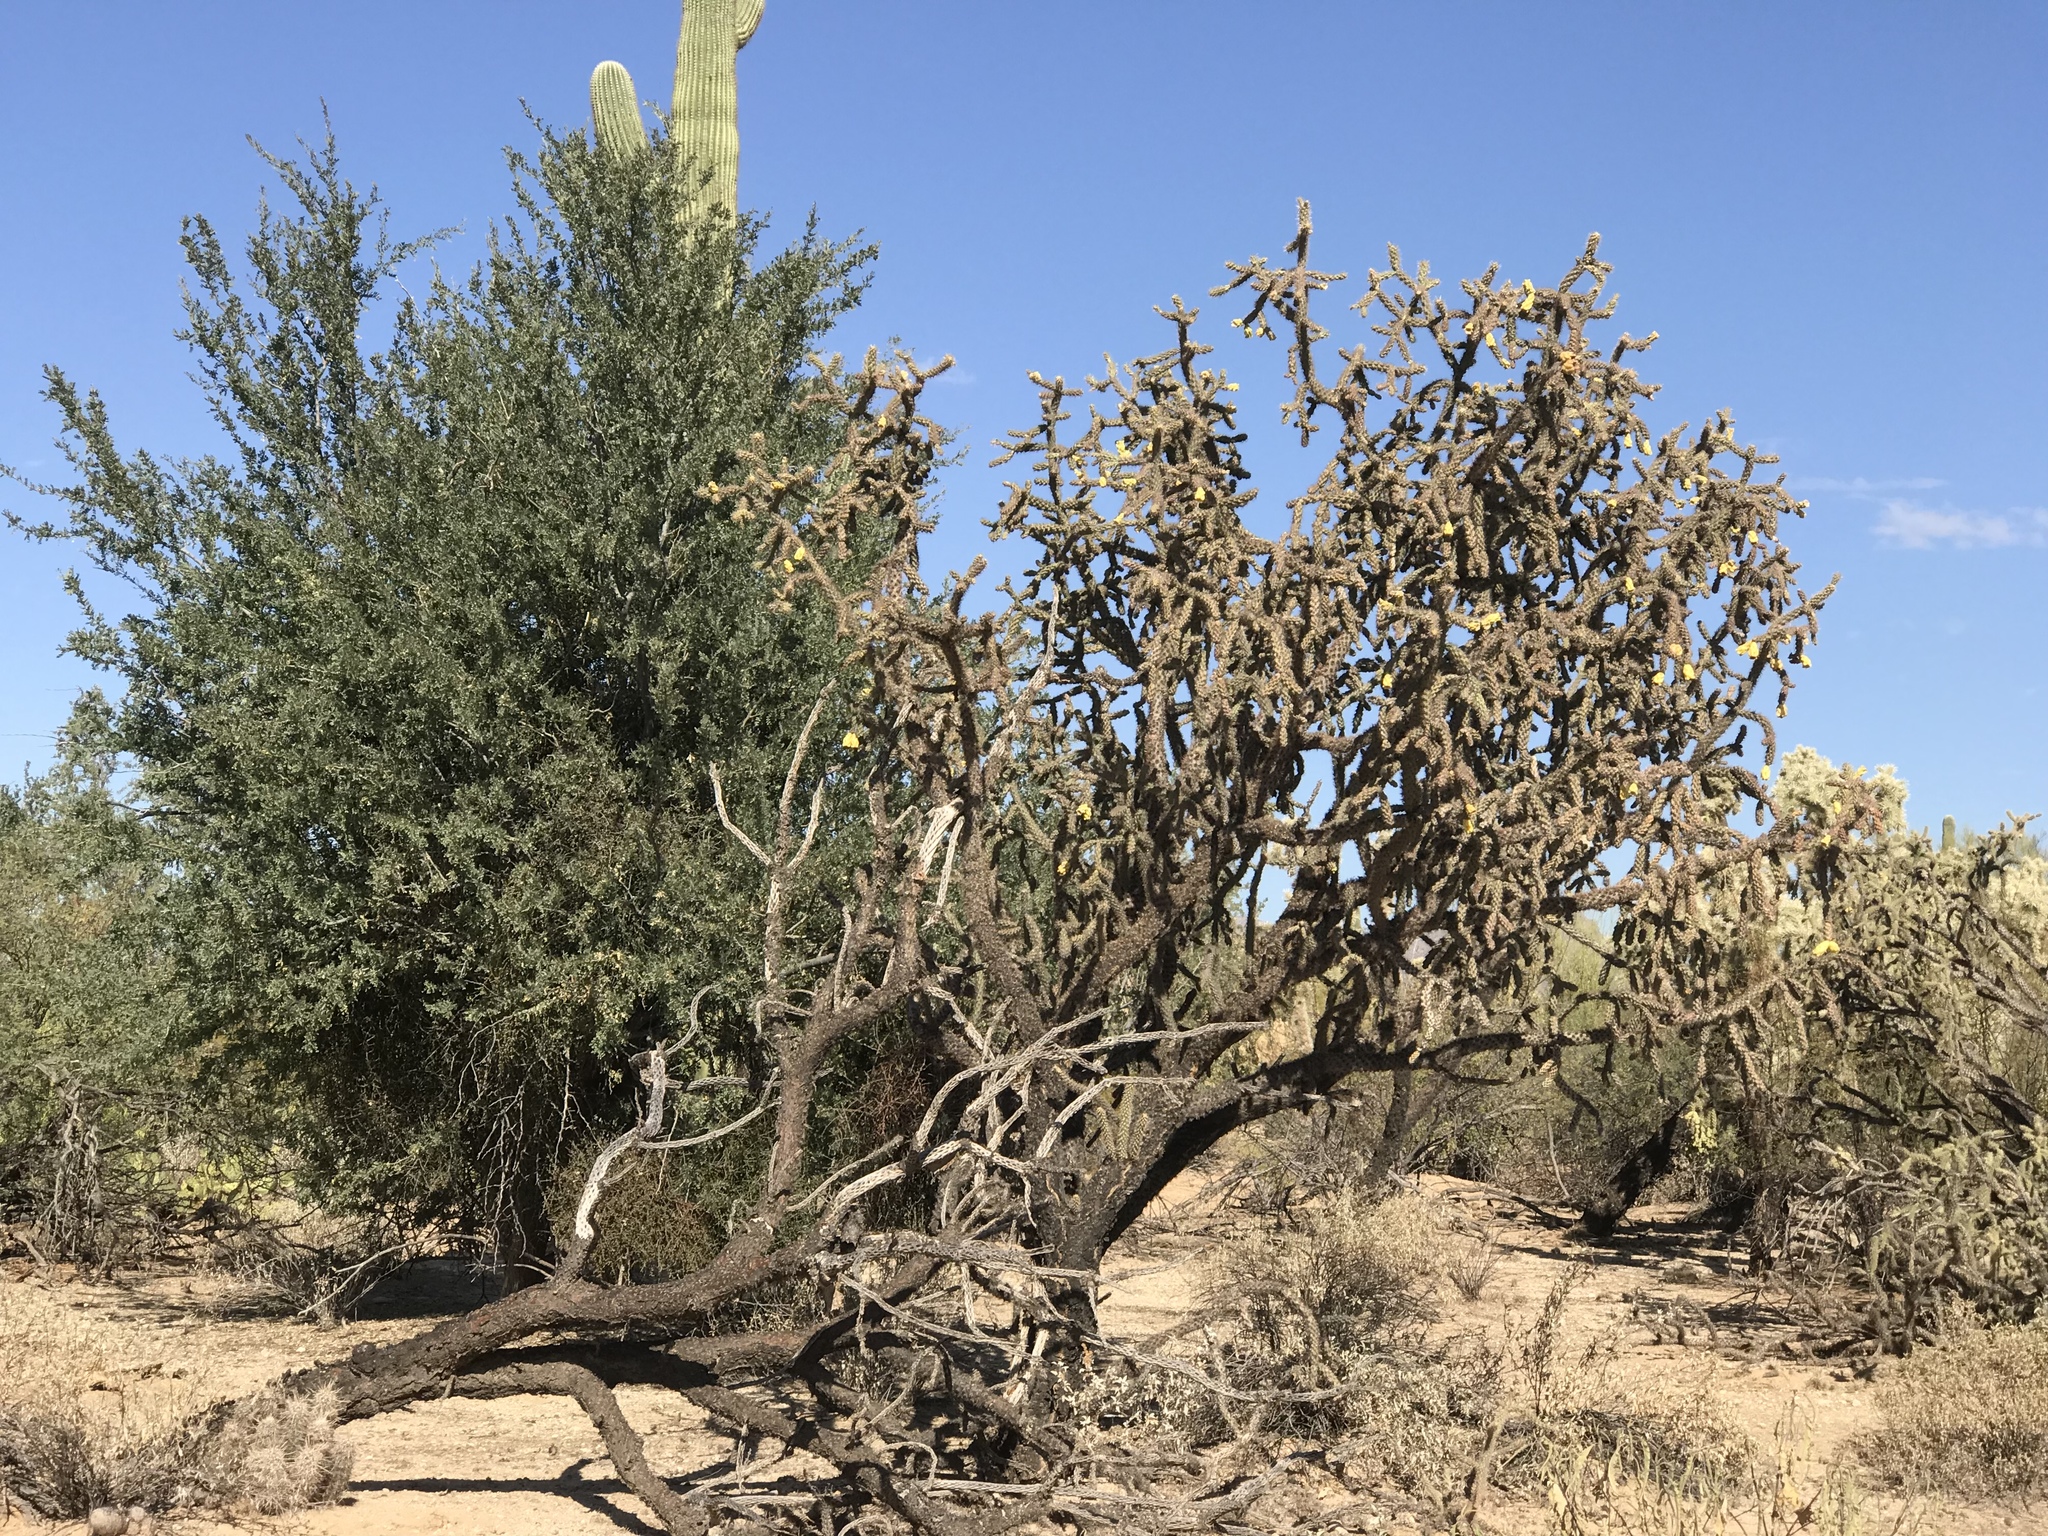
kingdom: Plantae
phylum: Tracheophyta
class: Magnoliopsida
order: Caryophyllales
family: Cactaceae
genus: Cylindropuntia
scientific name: Cylindropuntia thurberi
